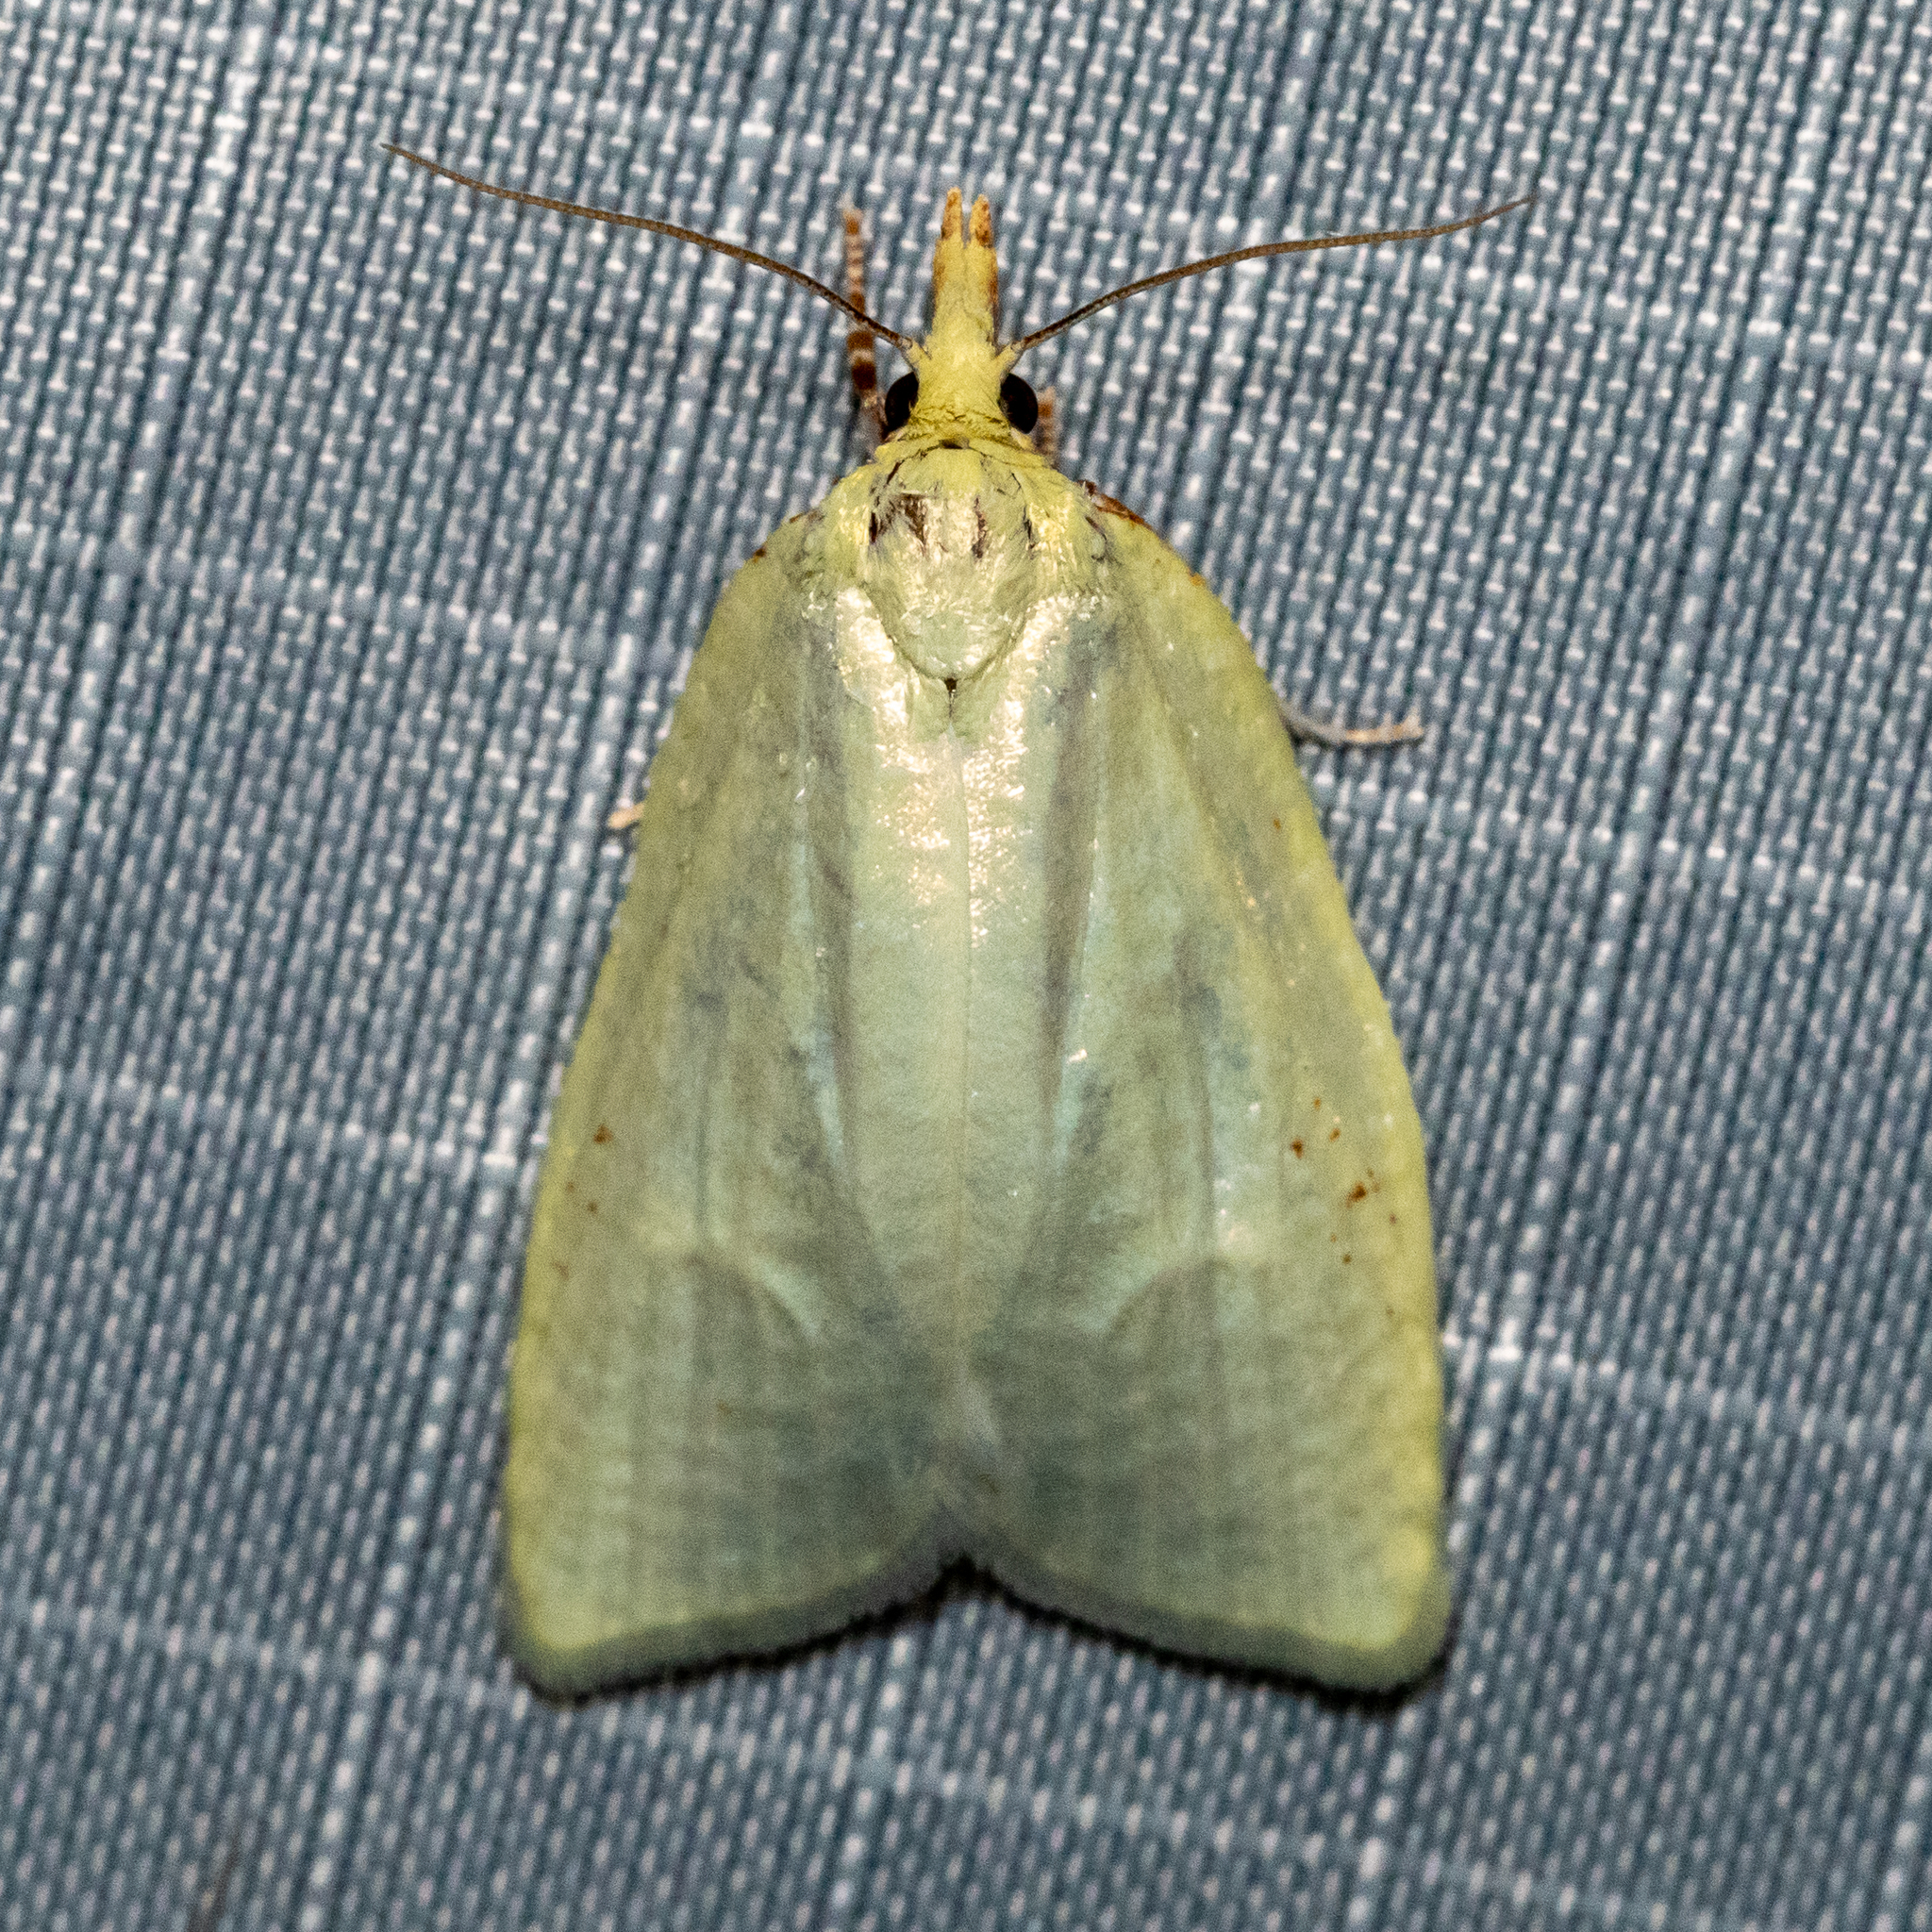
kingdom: Animalia
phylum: Arthropoda
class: Insecta
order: Lepidoptera
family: Tortricidae
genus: Cenopis
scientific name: Cenopis pettitana
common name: Maple-basswood leafroller moth
